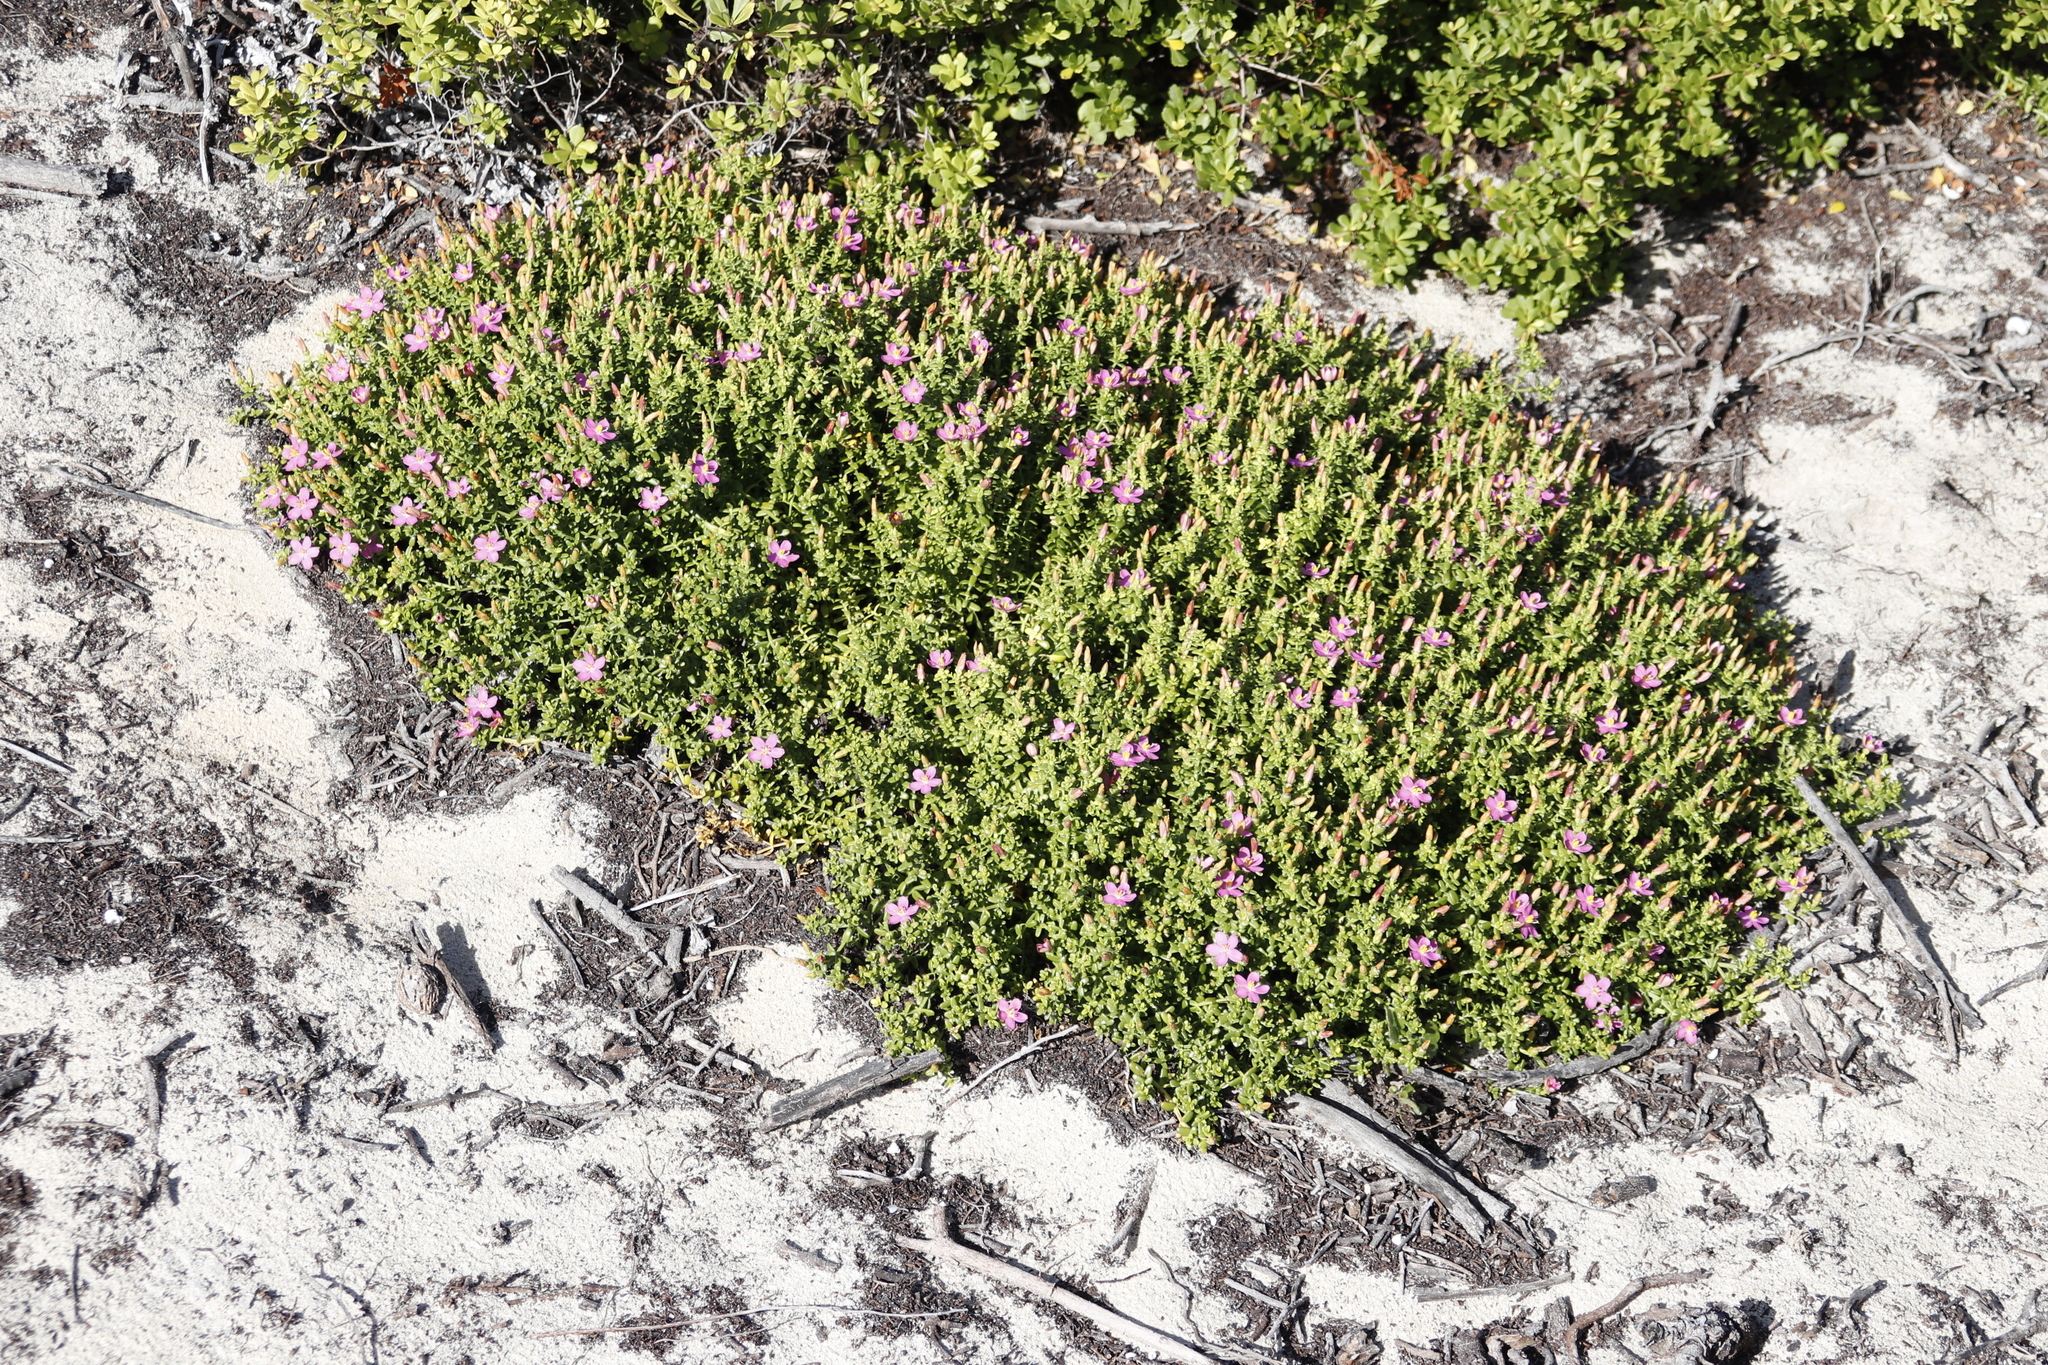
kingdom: Plantae
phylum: Tracheophyta
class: Magnoliopsida
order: Gentianales
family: Gentianaceae
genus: Chironia
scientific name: Chironia baccifera
